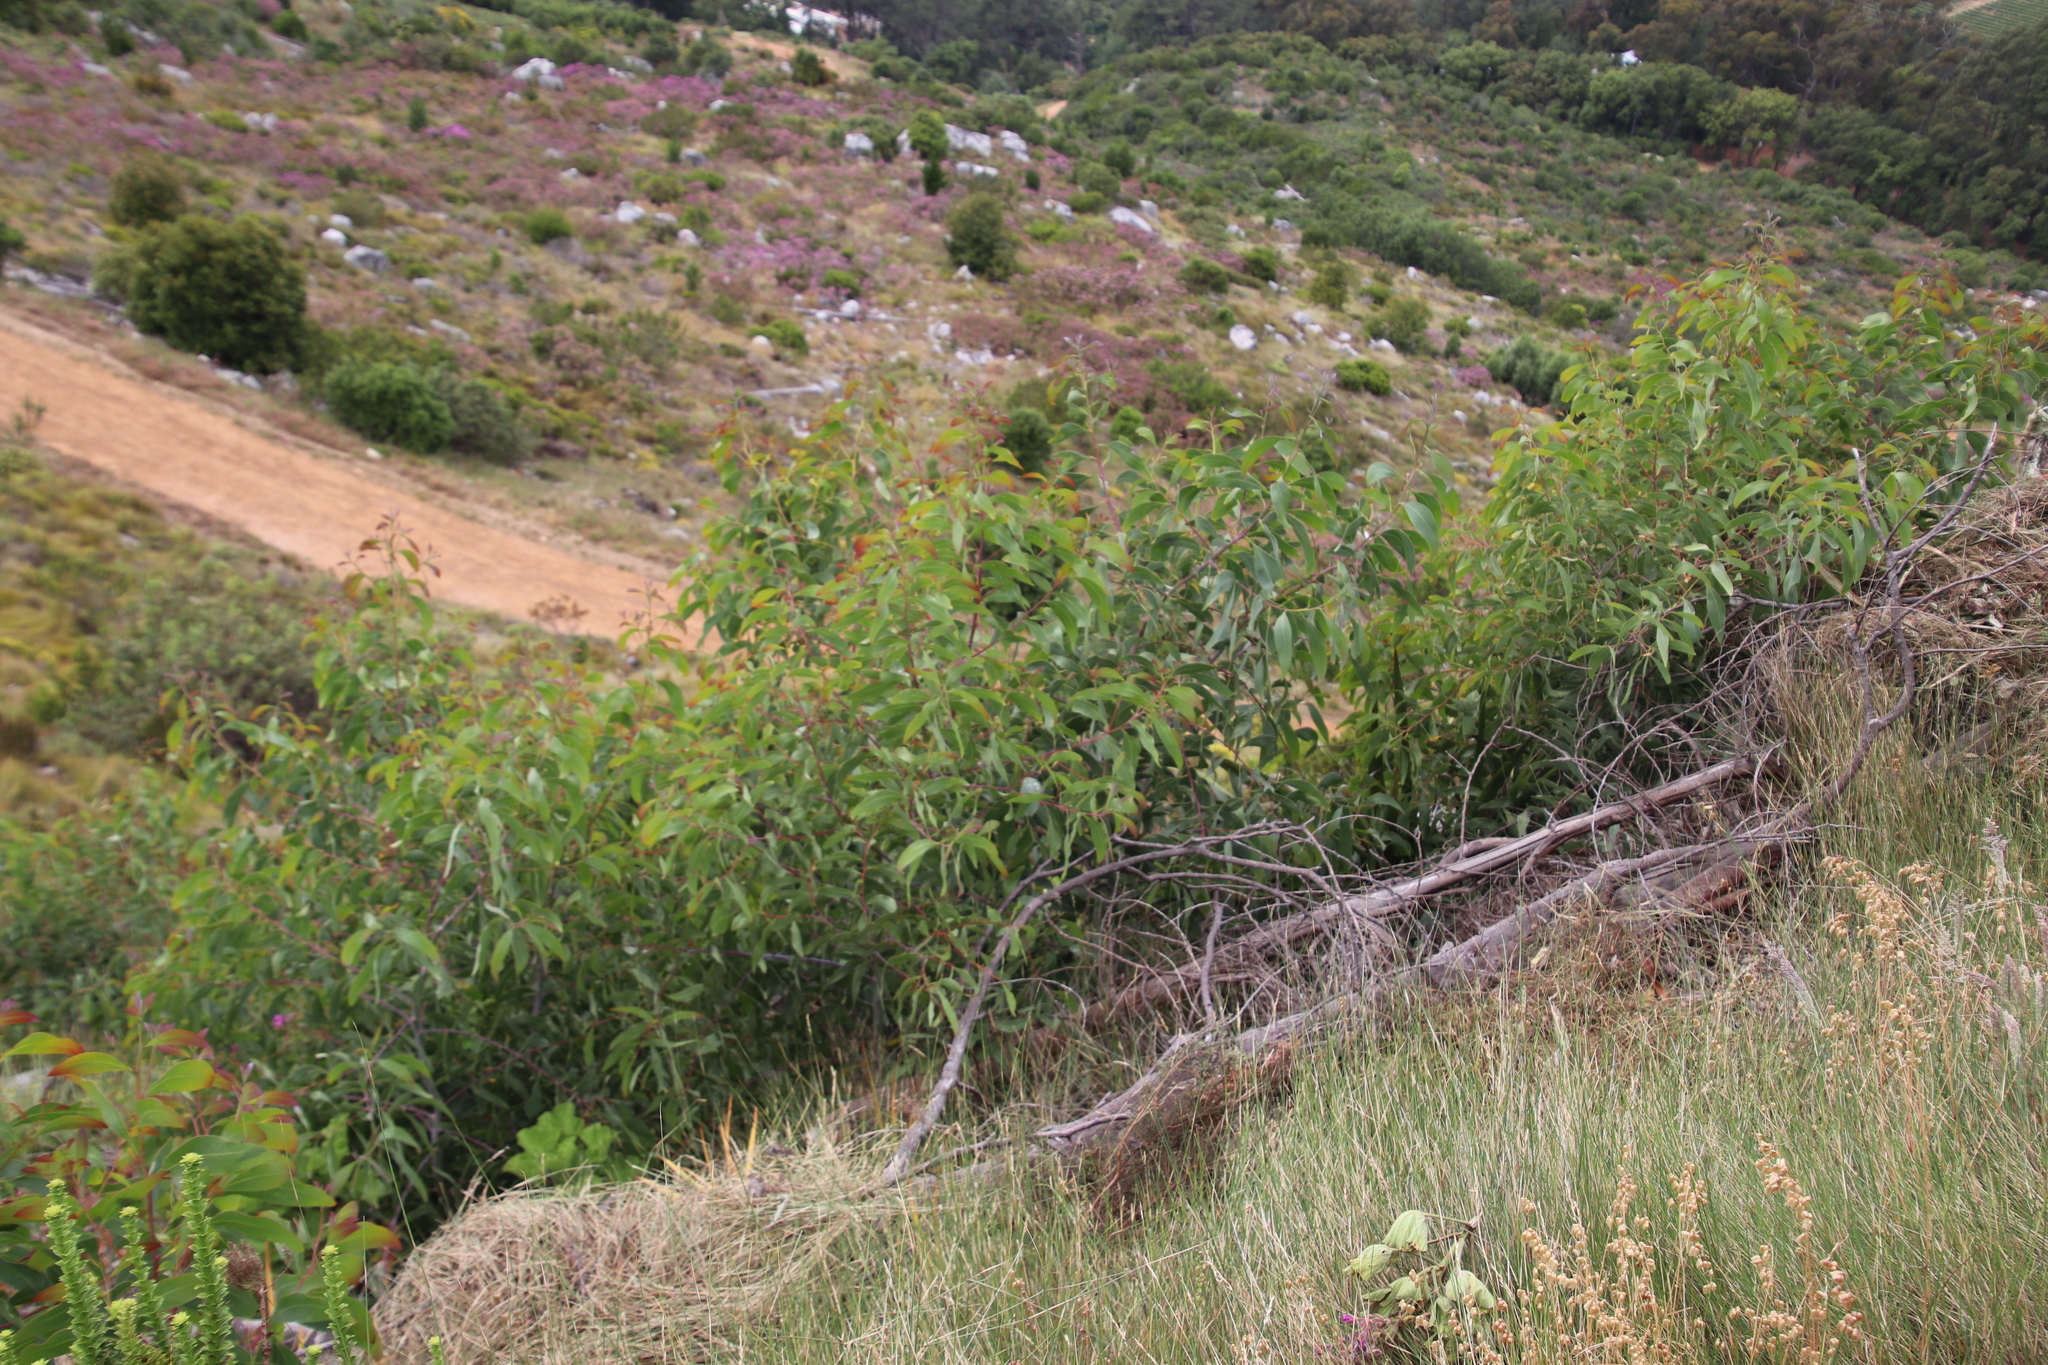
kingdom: Plantae
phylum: Tracheophyta
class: Magnoliopsida
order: Fabales
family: Fabaceae
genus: Acacia
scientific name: Acacia falciformis
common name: Tanning wattle
